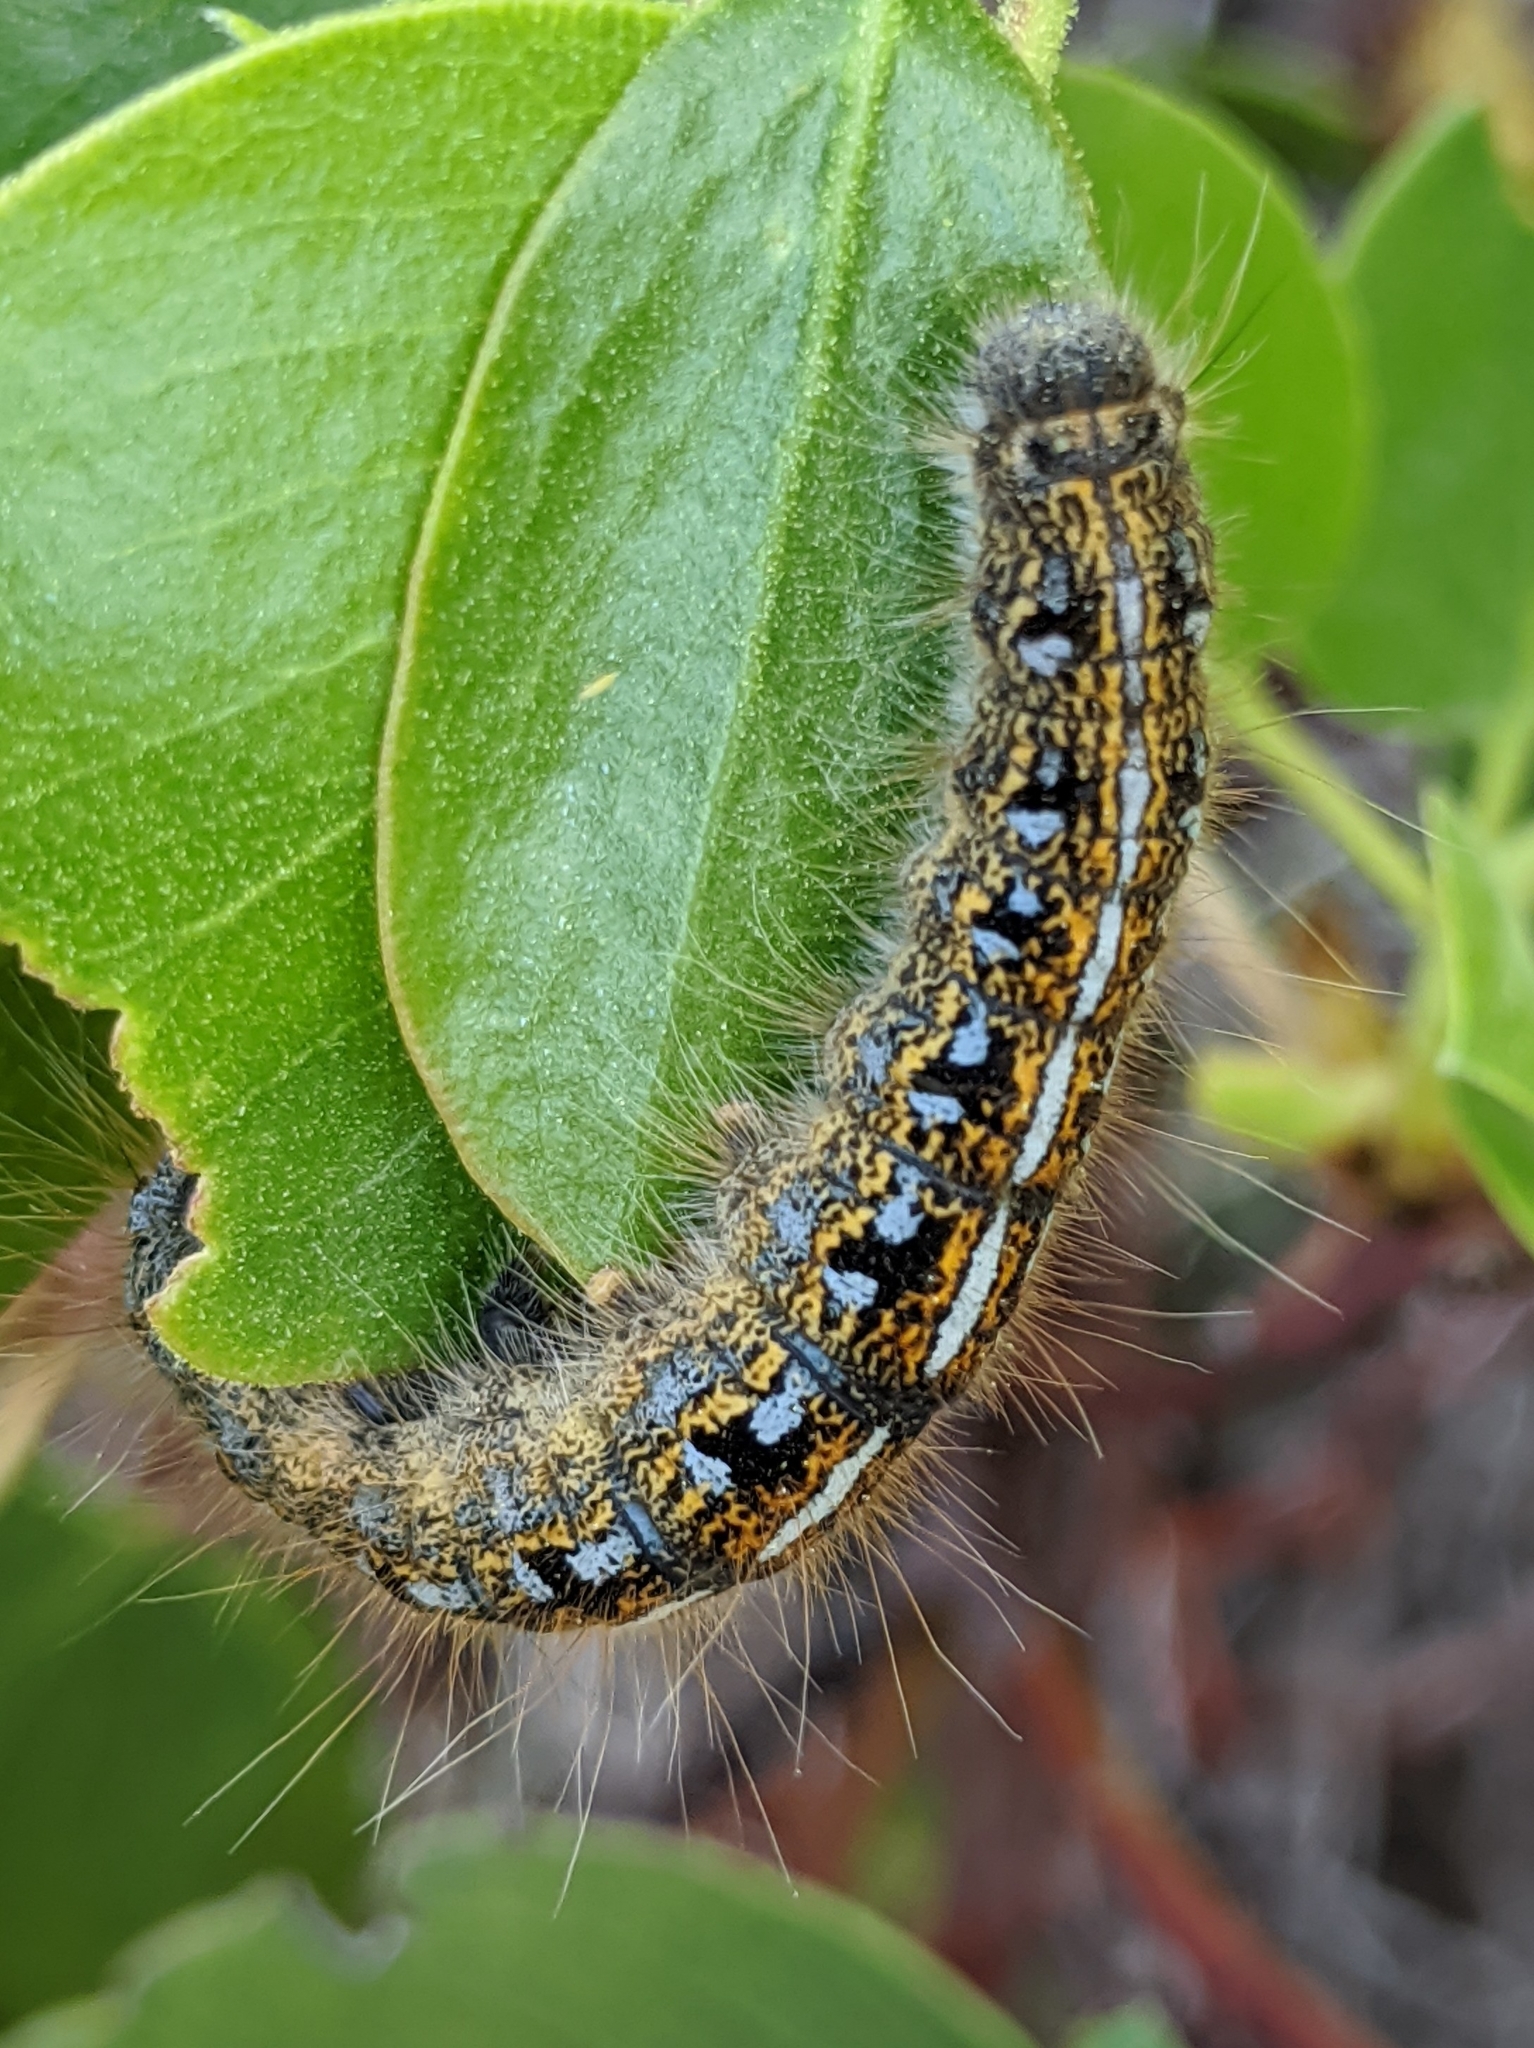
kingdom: Animalia
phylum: Arthropoda
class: Insecta
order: Lepidoptera
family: Lasiocampidae
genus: Malacosoma
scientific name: Malacosoma californica
